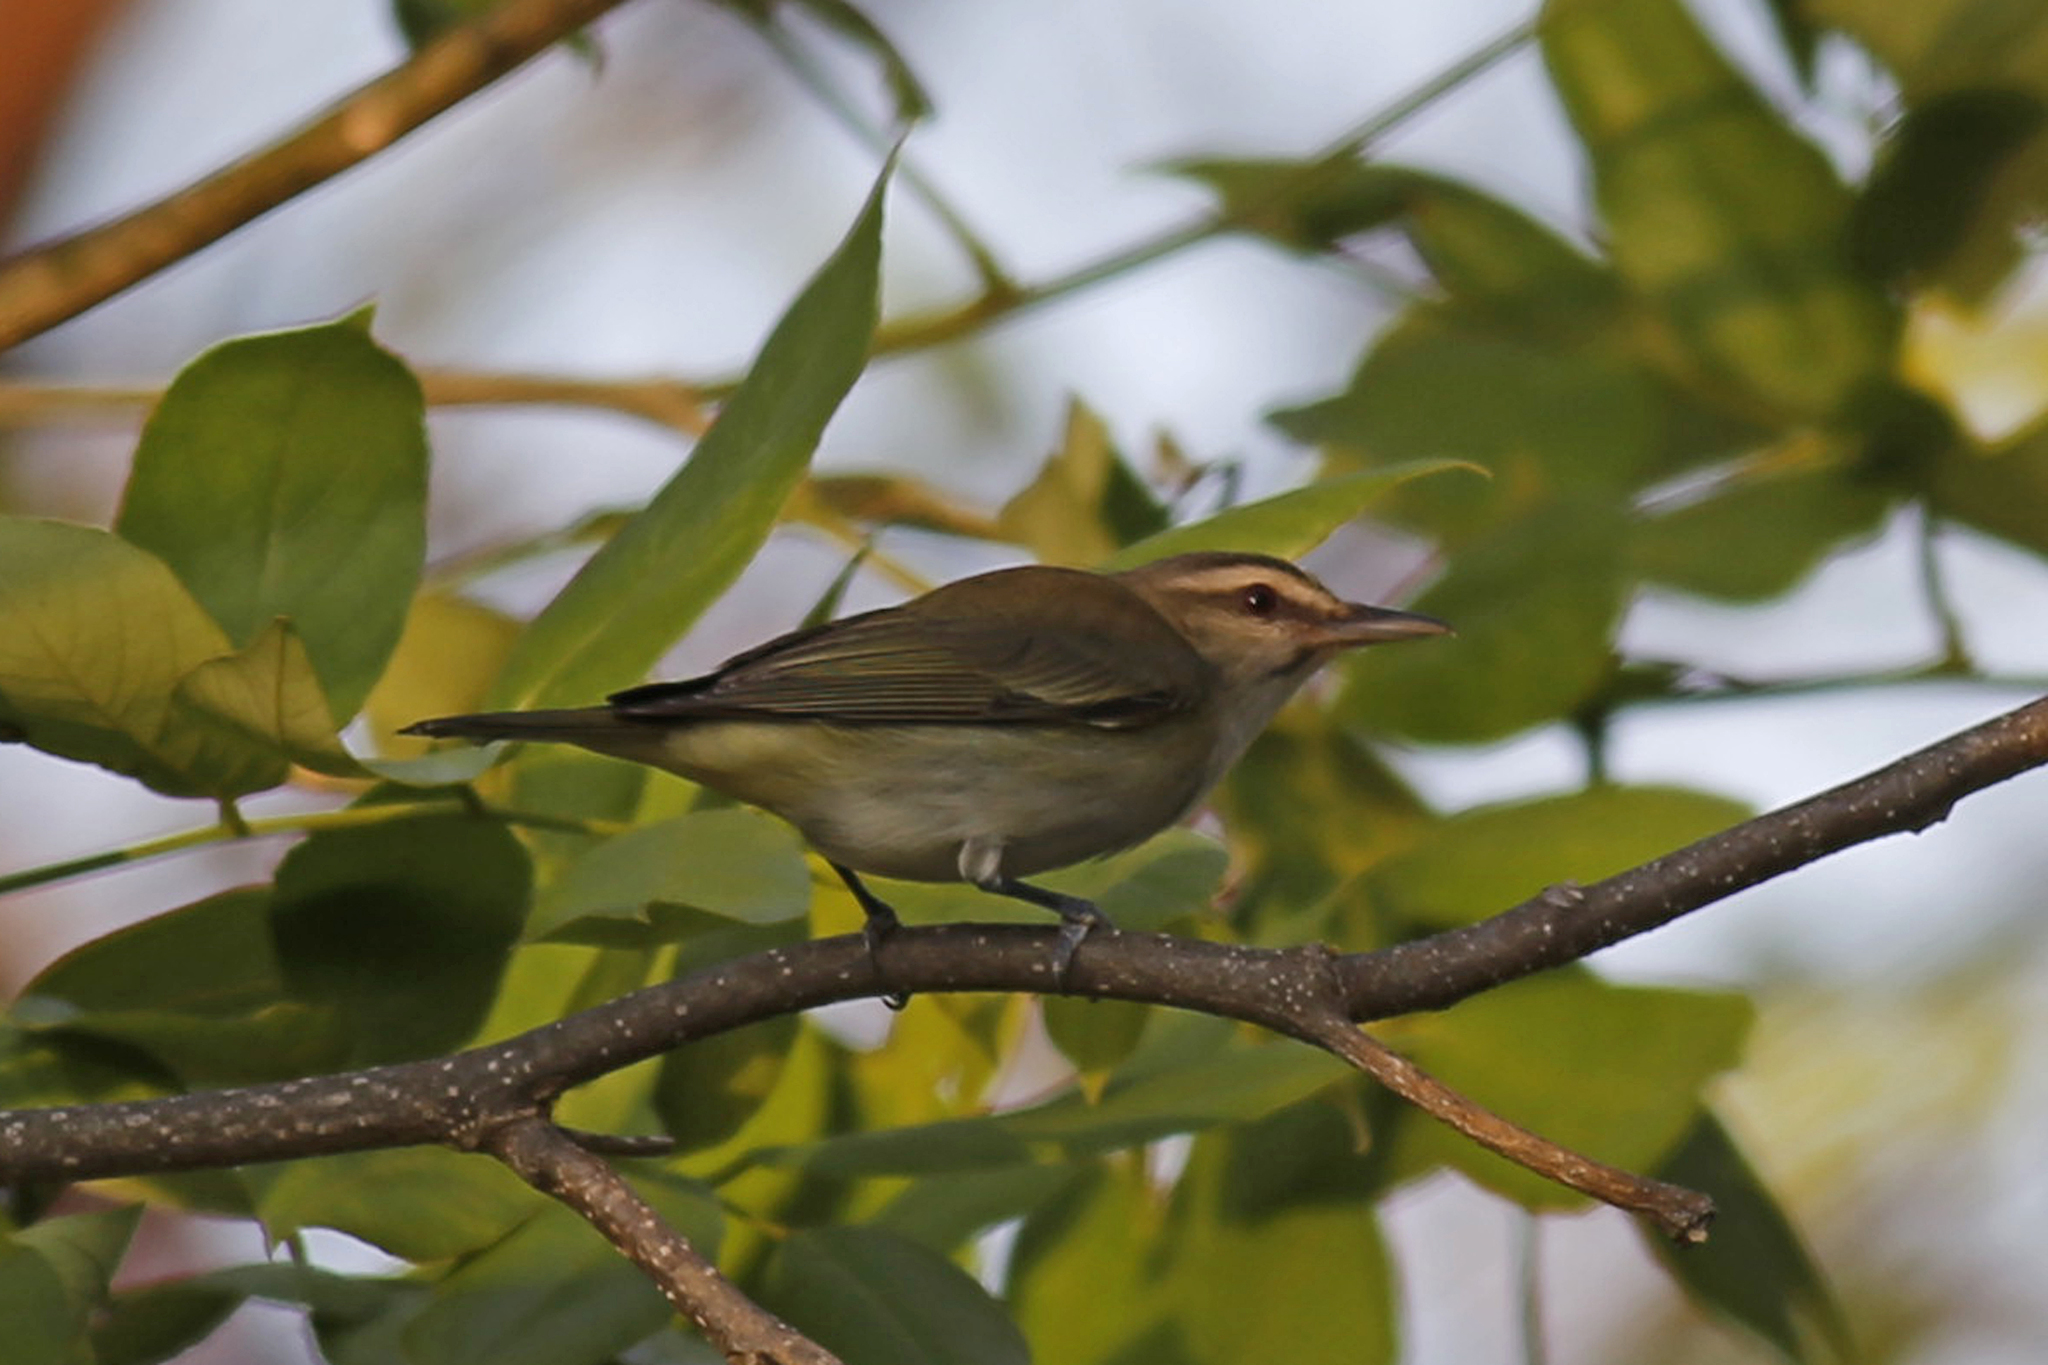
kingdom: Animalia
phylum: Chordata
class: Aves
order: Passeriformes
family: Vireonidae
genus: Vireo
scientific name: Vireo altiloquus
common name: Black-whiskered vireo
